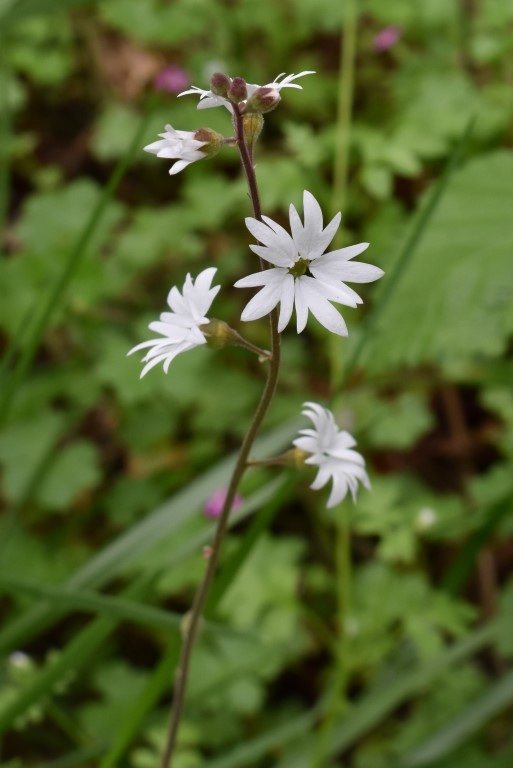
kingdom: Plantae
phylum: Tracheophyta
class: Magnoliopsida
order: Saxifragales
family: Saxifragaceae
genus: Lithophragma
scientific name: Lithophragma parviflorum
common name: Small-flowered fringe-cup
